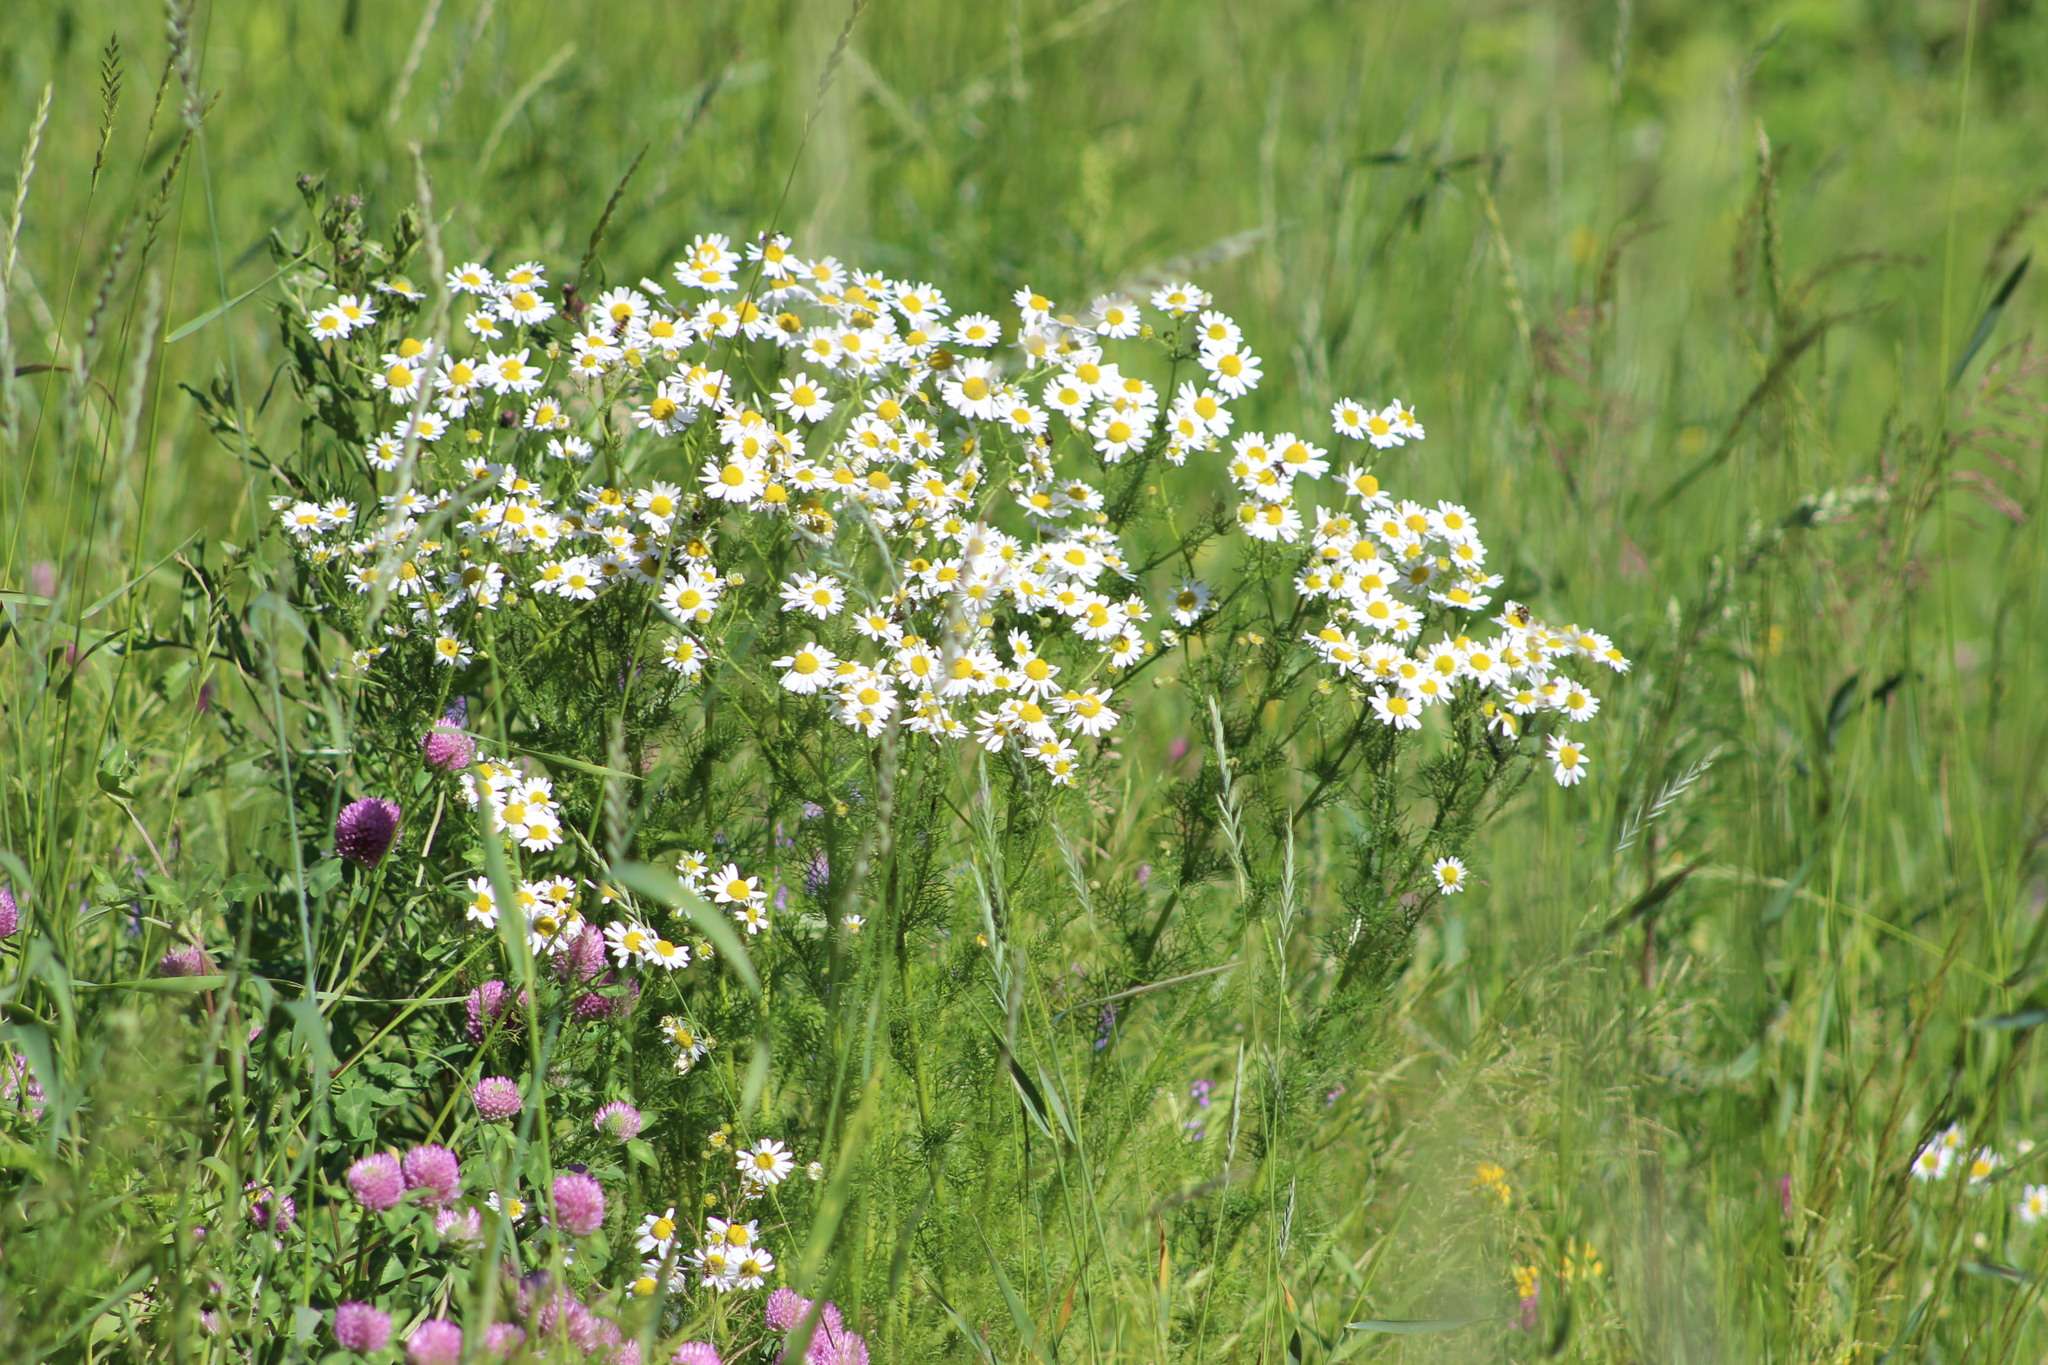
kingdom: Plantae
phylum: Tracheophyta
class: Magnoliopsida
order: Asterales
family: Asteraceae
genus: Tripleurospermum
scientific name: Tripleurospermum inodorum
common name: Scentless mayweed
